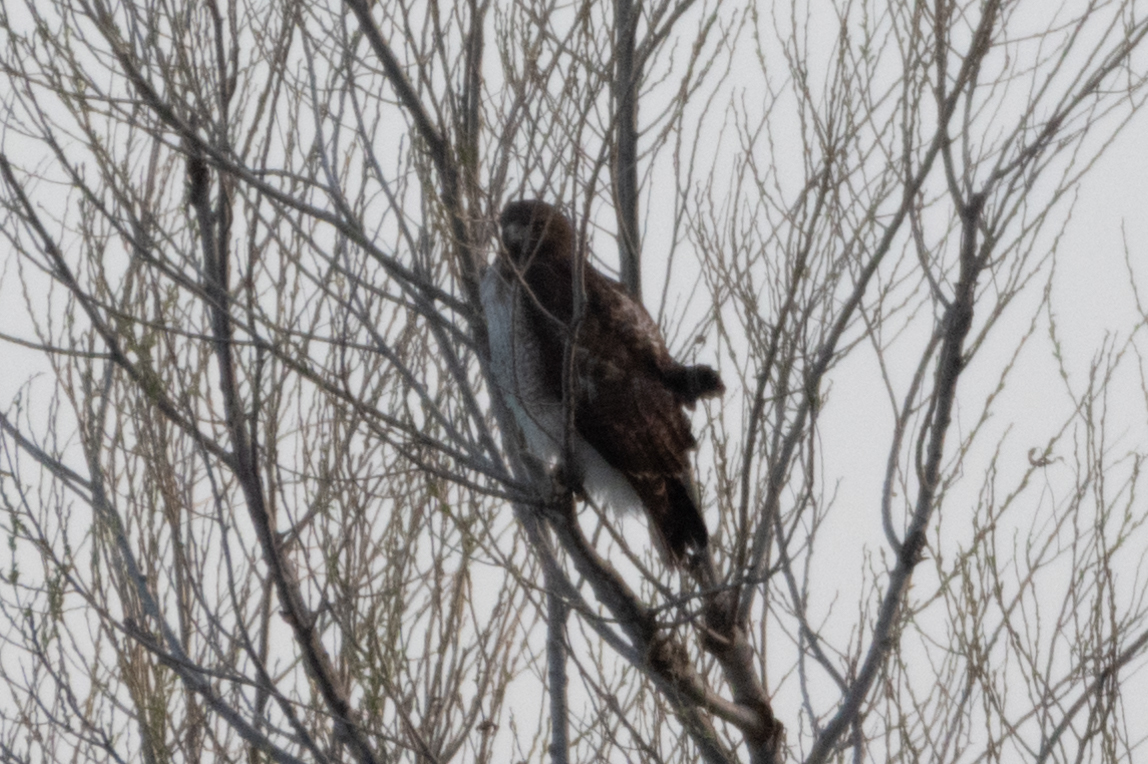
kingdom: Animalia
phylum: Chordata
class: Aves
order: Accipitriformes
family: Accipitridae
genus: Buteo
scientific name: Buteo jamaicensis
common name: Red-tailed hawk
